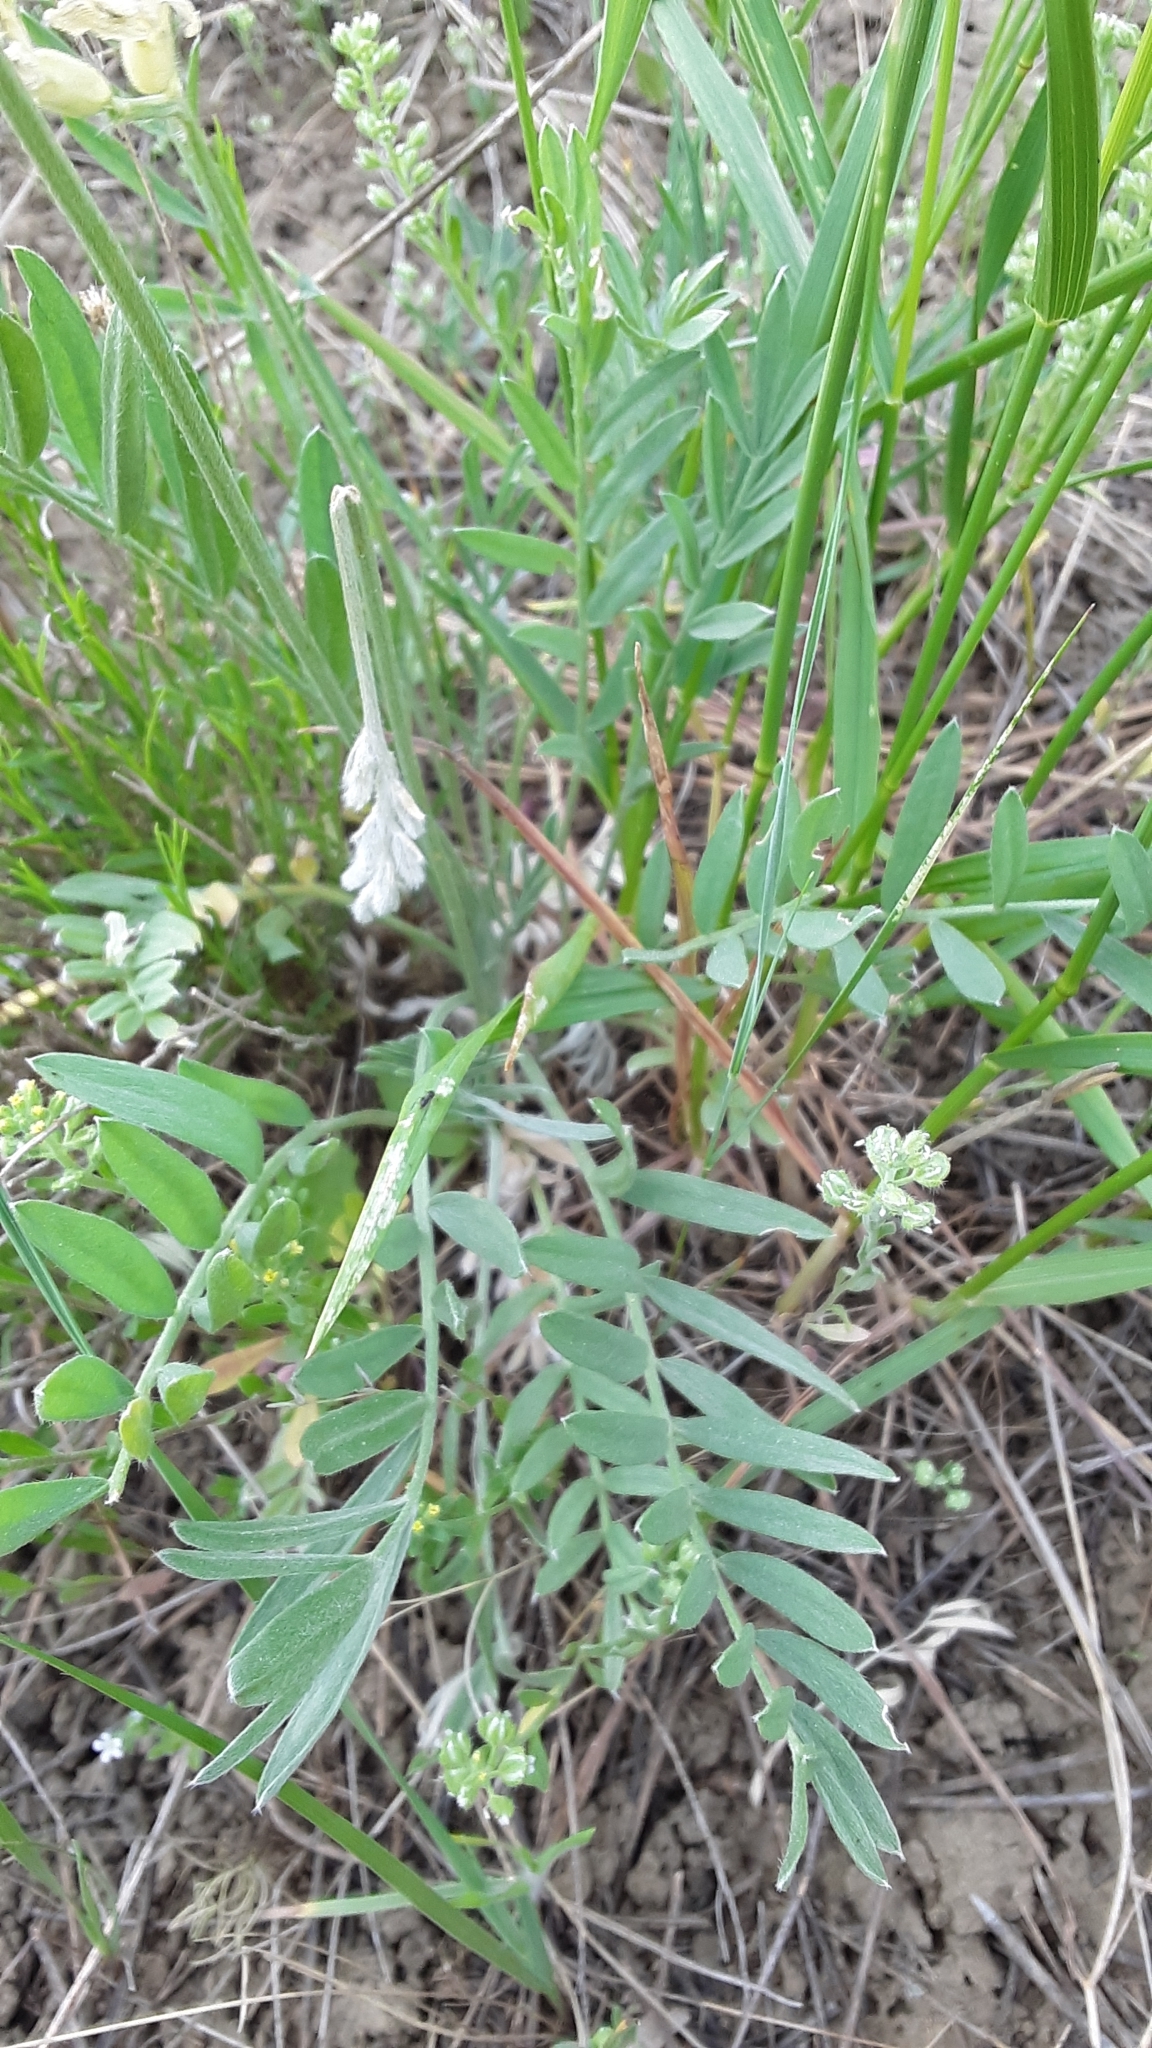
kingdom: Plantae
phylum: Tracheophyta
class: Magnoliopsida
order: Fabales
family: Fabaceae
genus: Oxytropis
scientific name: Oxytropis sericea
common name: Silky locoweed
